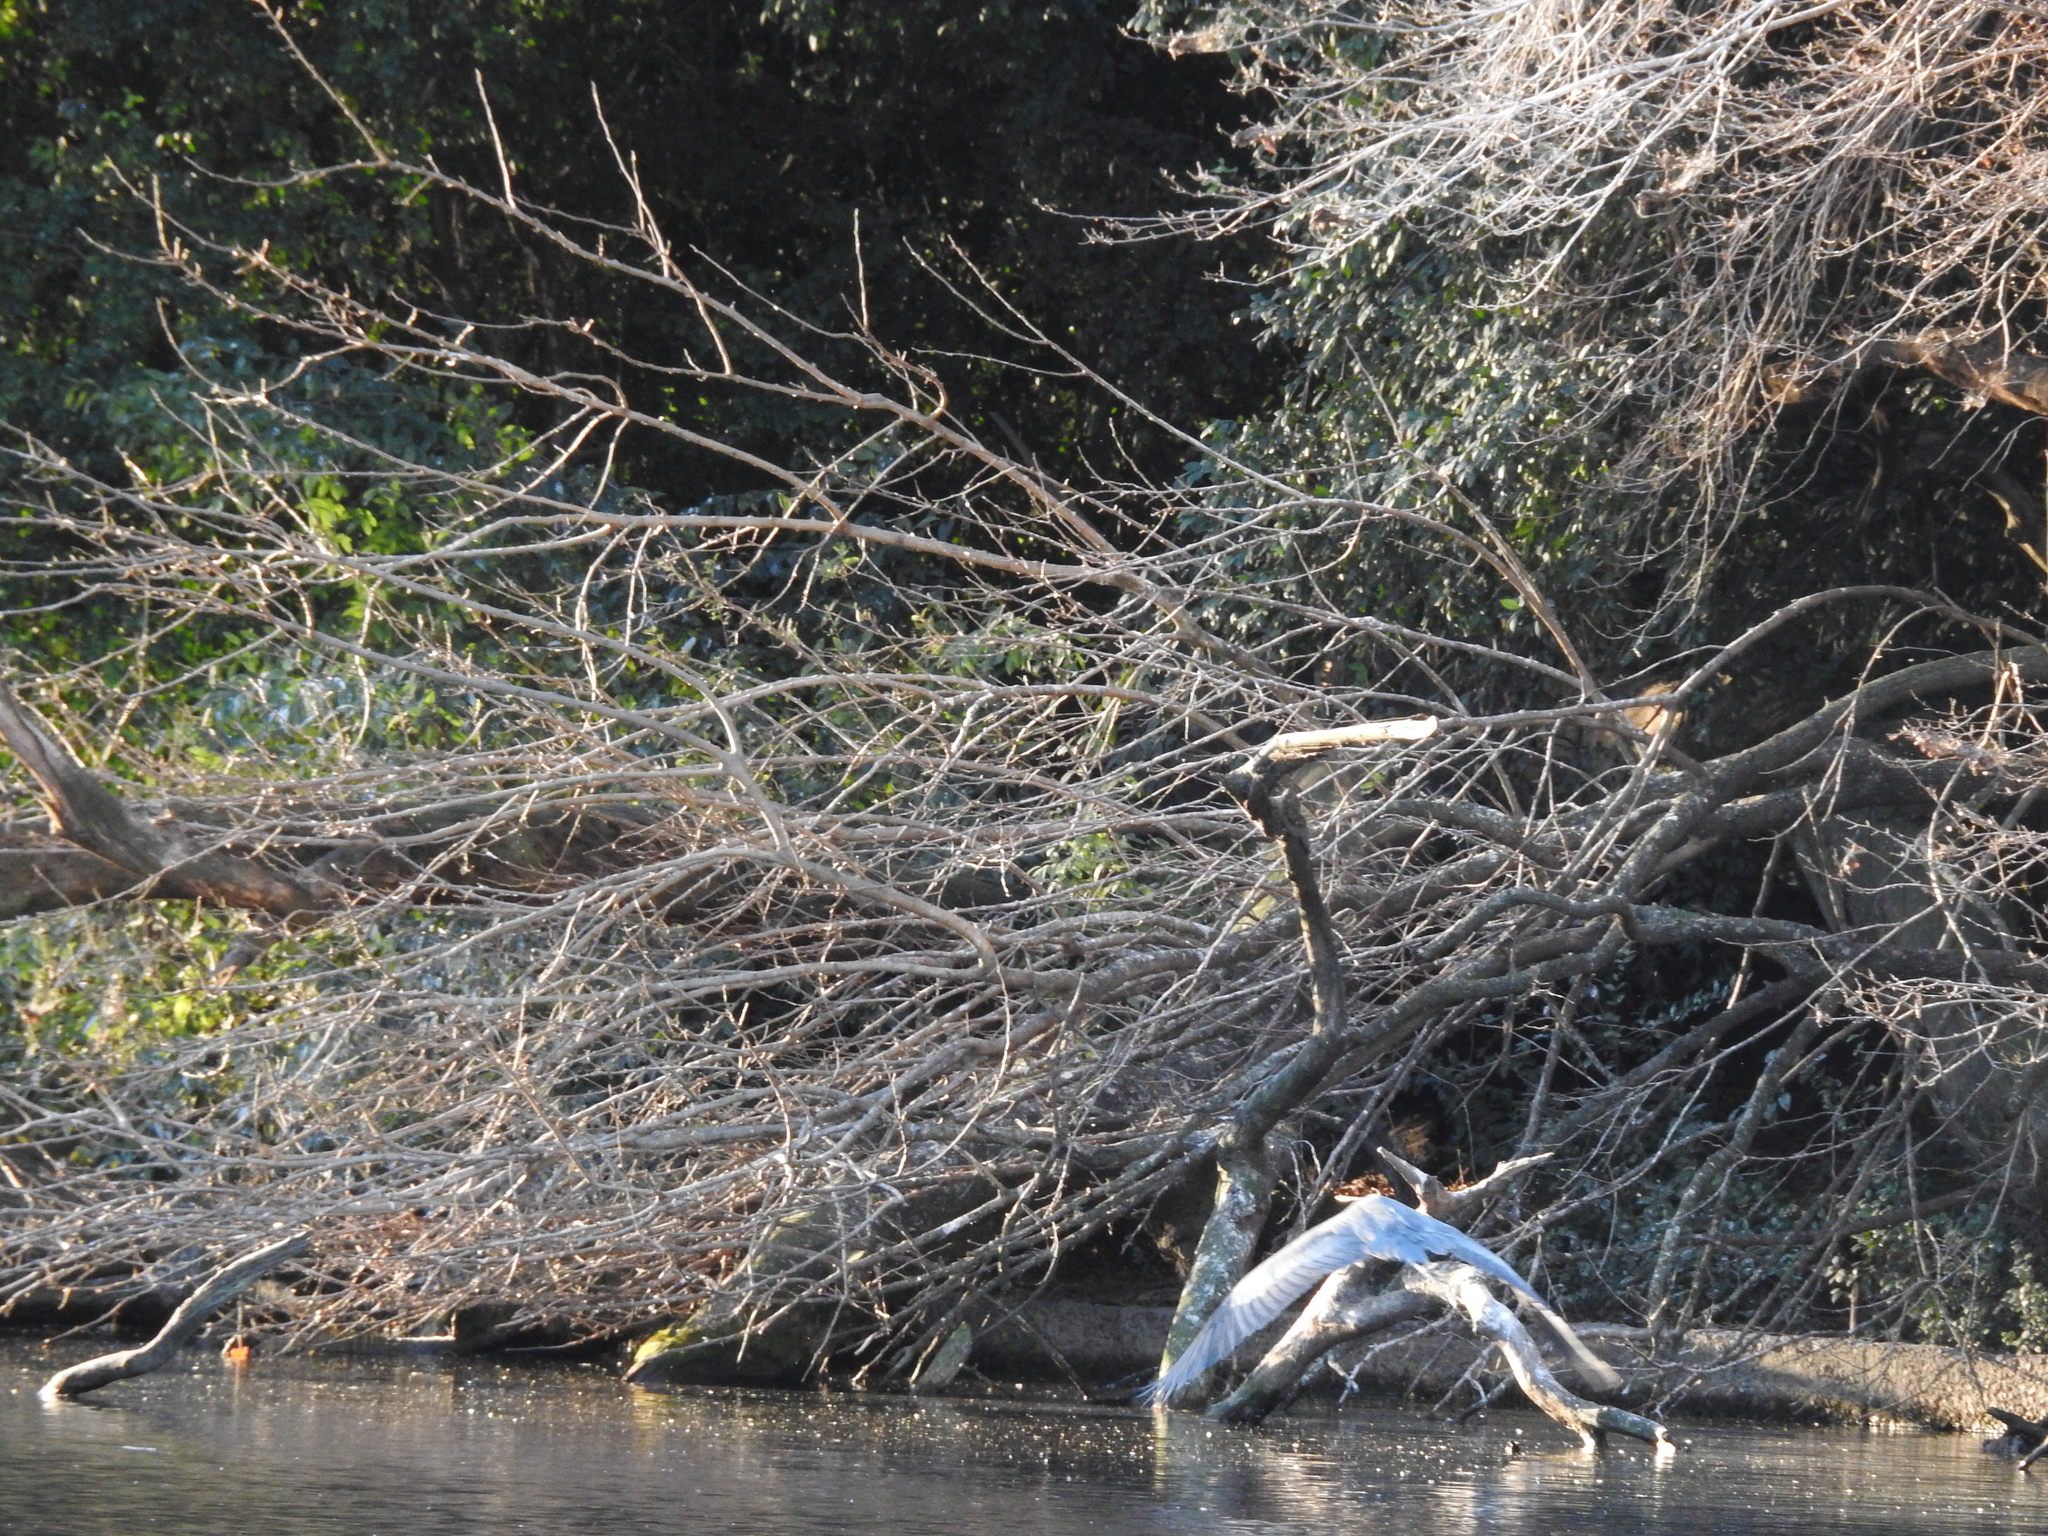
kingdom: Animalia
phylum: Chordata
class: Aves
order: Pelecaniformes
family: Ardeidae
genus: Ardea
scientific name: Ardea cocoi
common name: Cocoi heron
